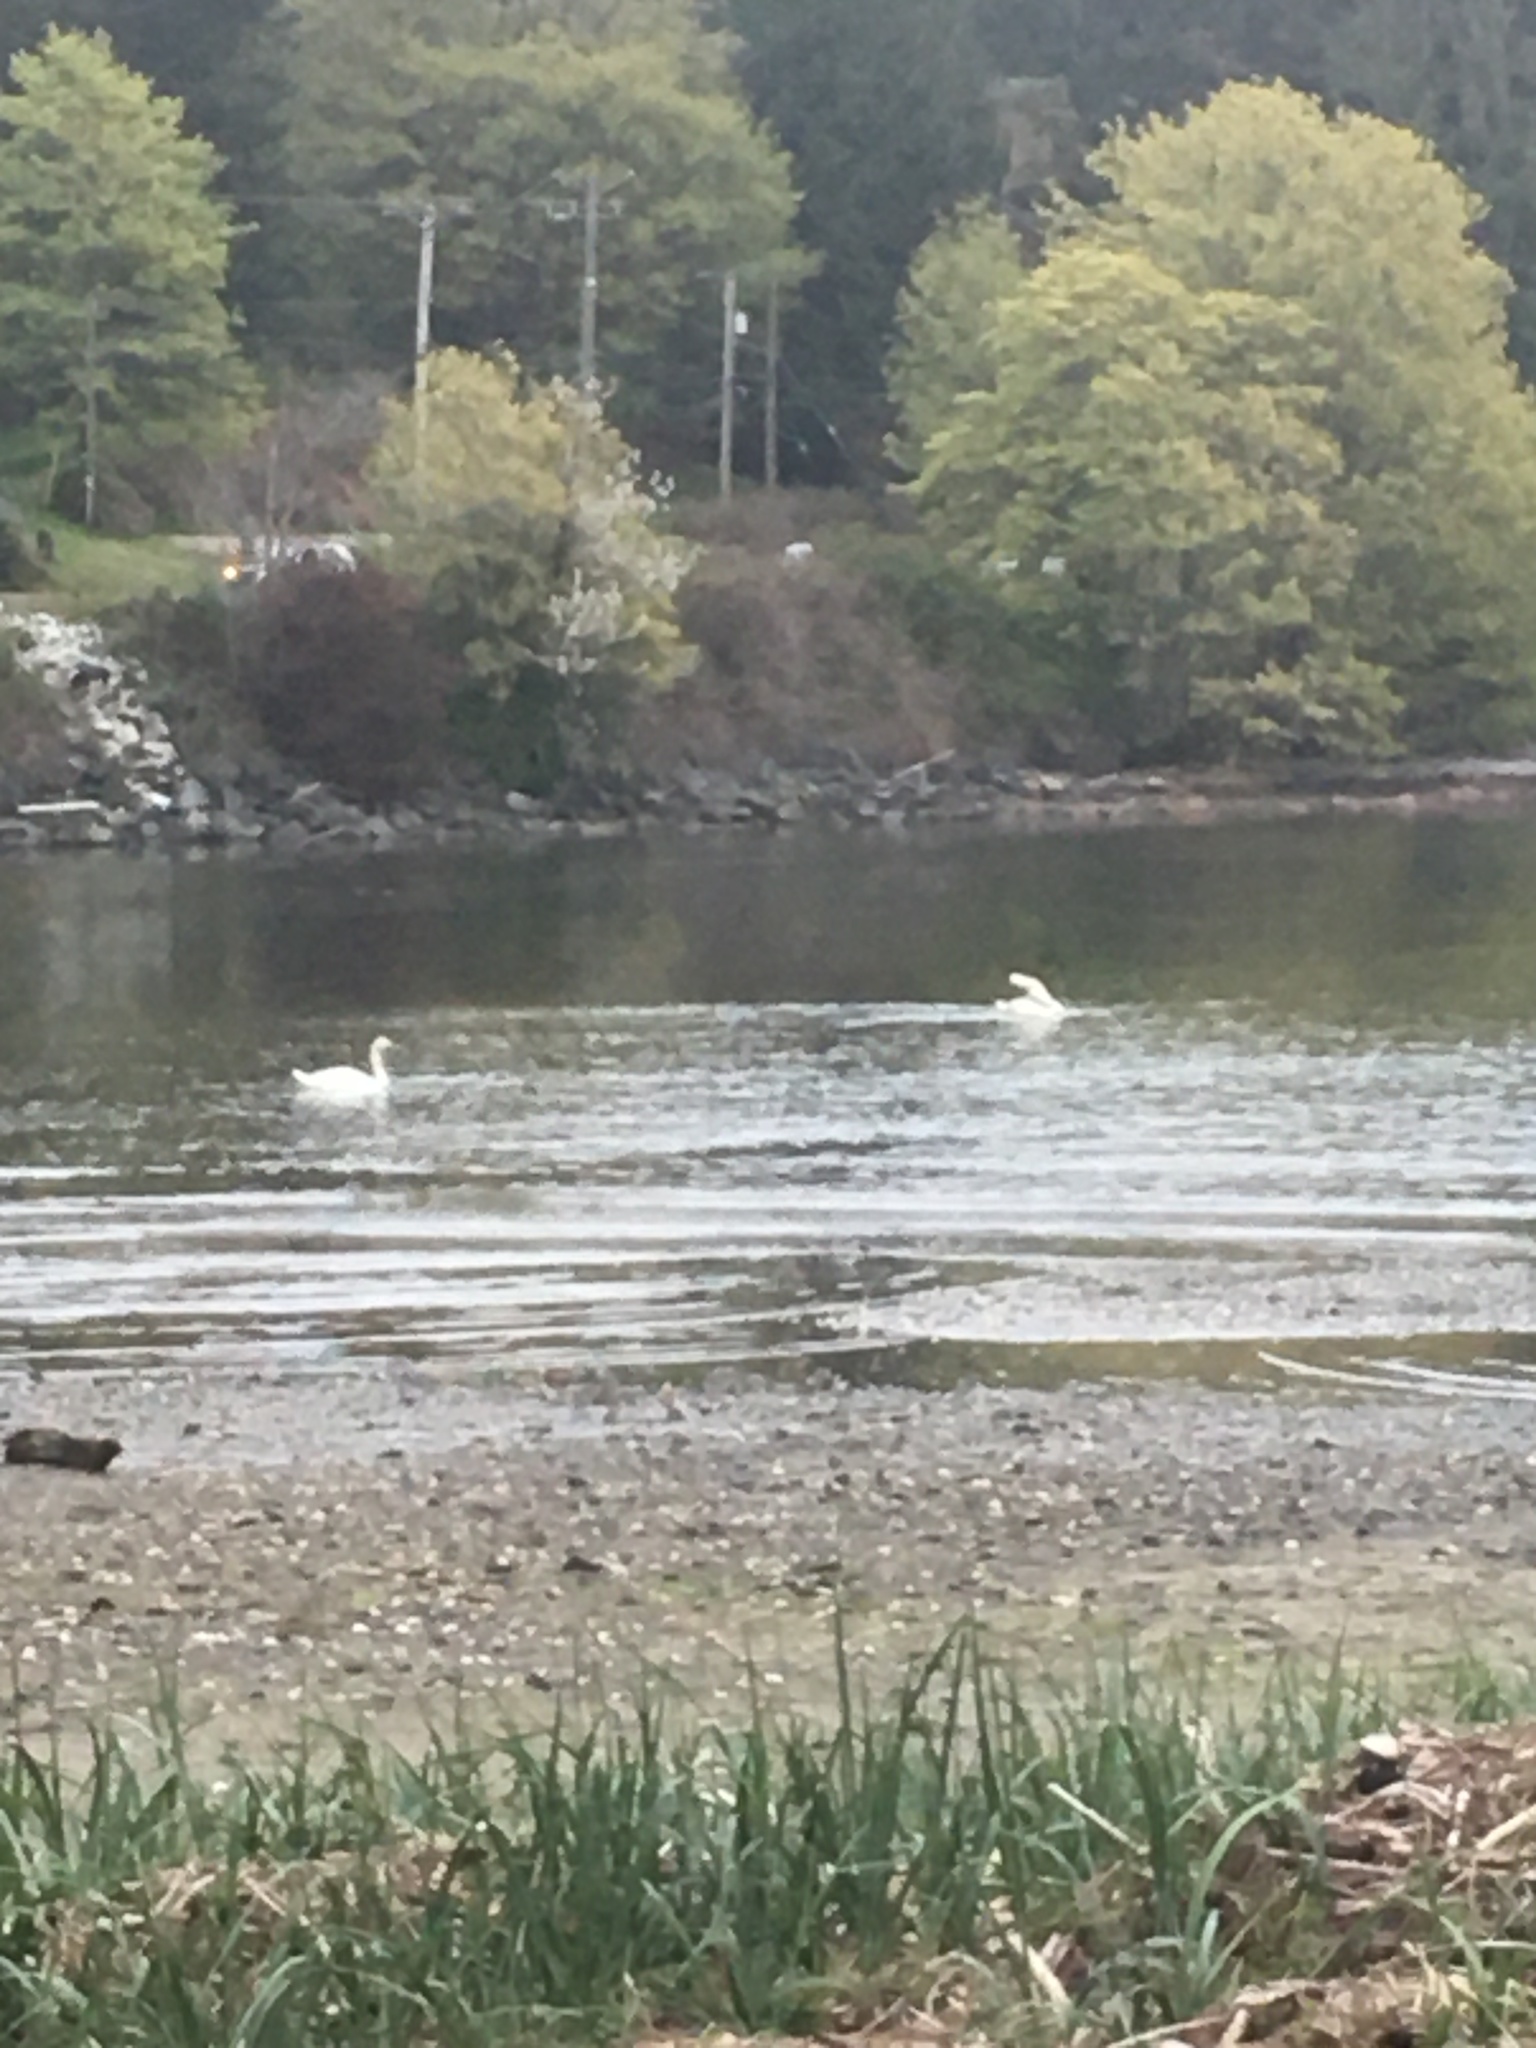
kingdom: Animalia
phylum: Chordata
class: Aves
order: Anseriformes
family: Anatidae
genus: Cygnus
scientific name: Cygnus olor
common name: Mute swan
